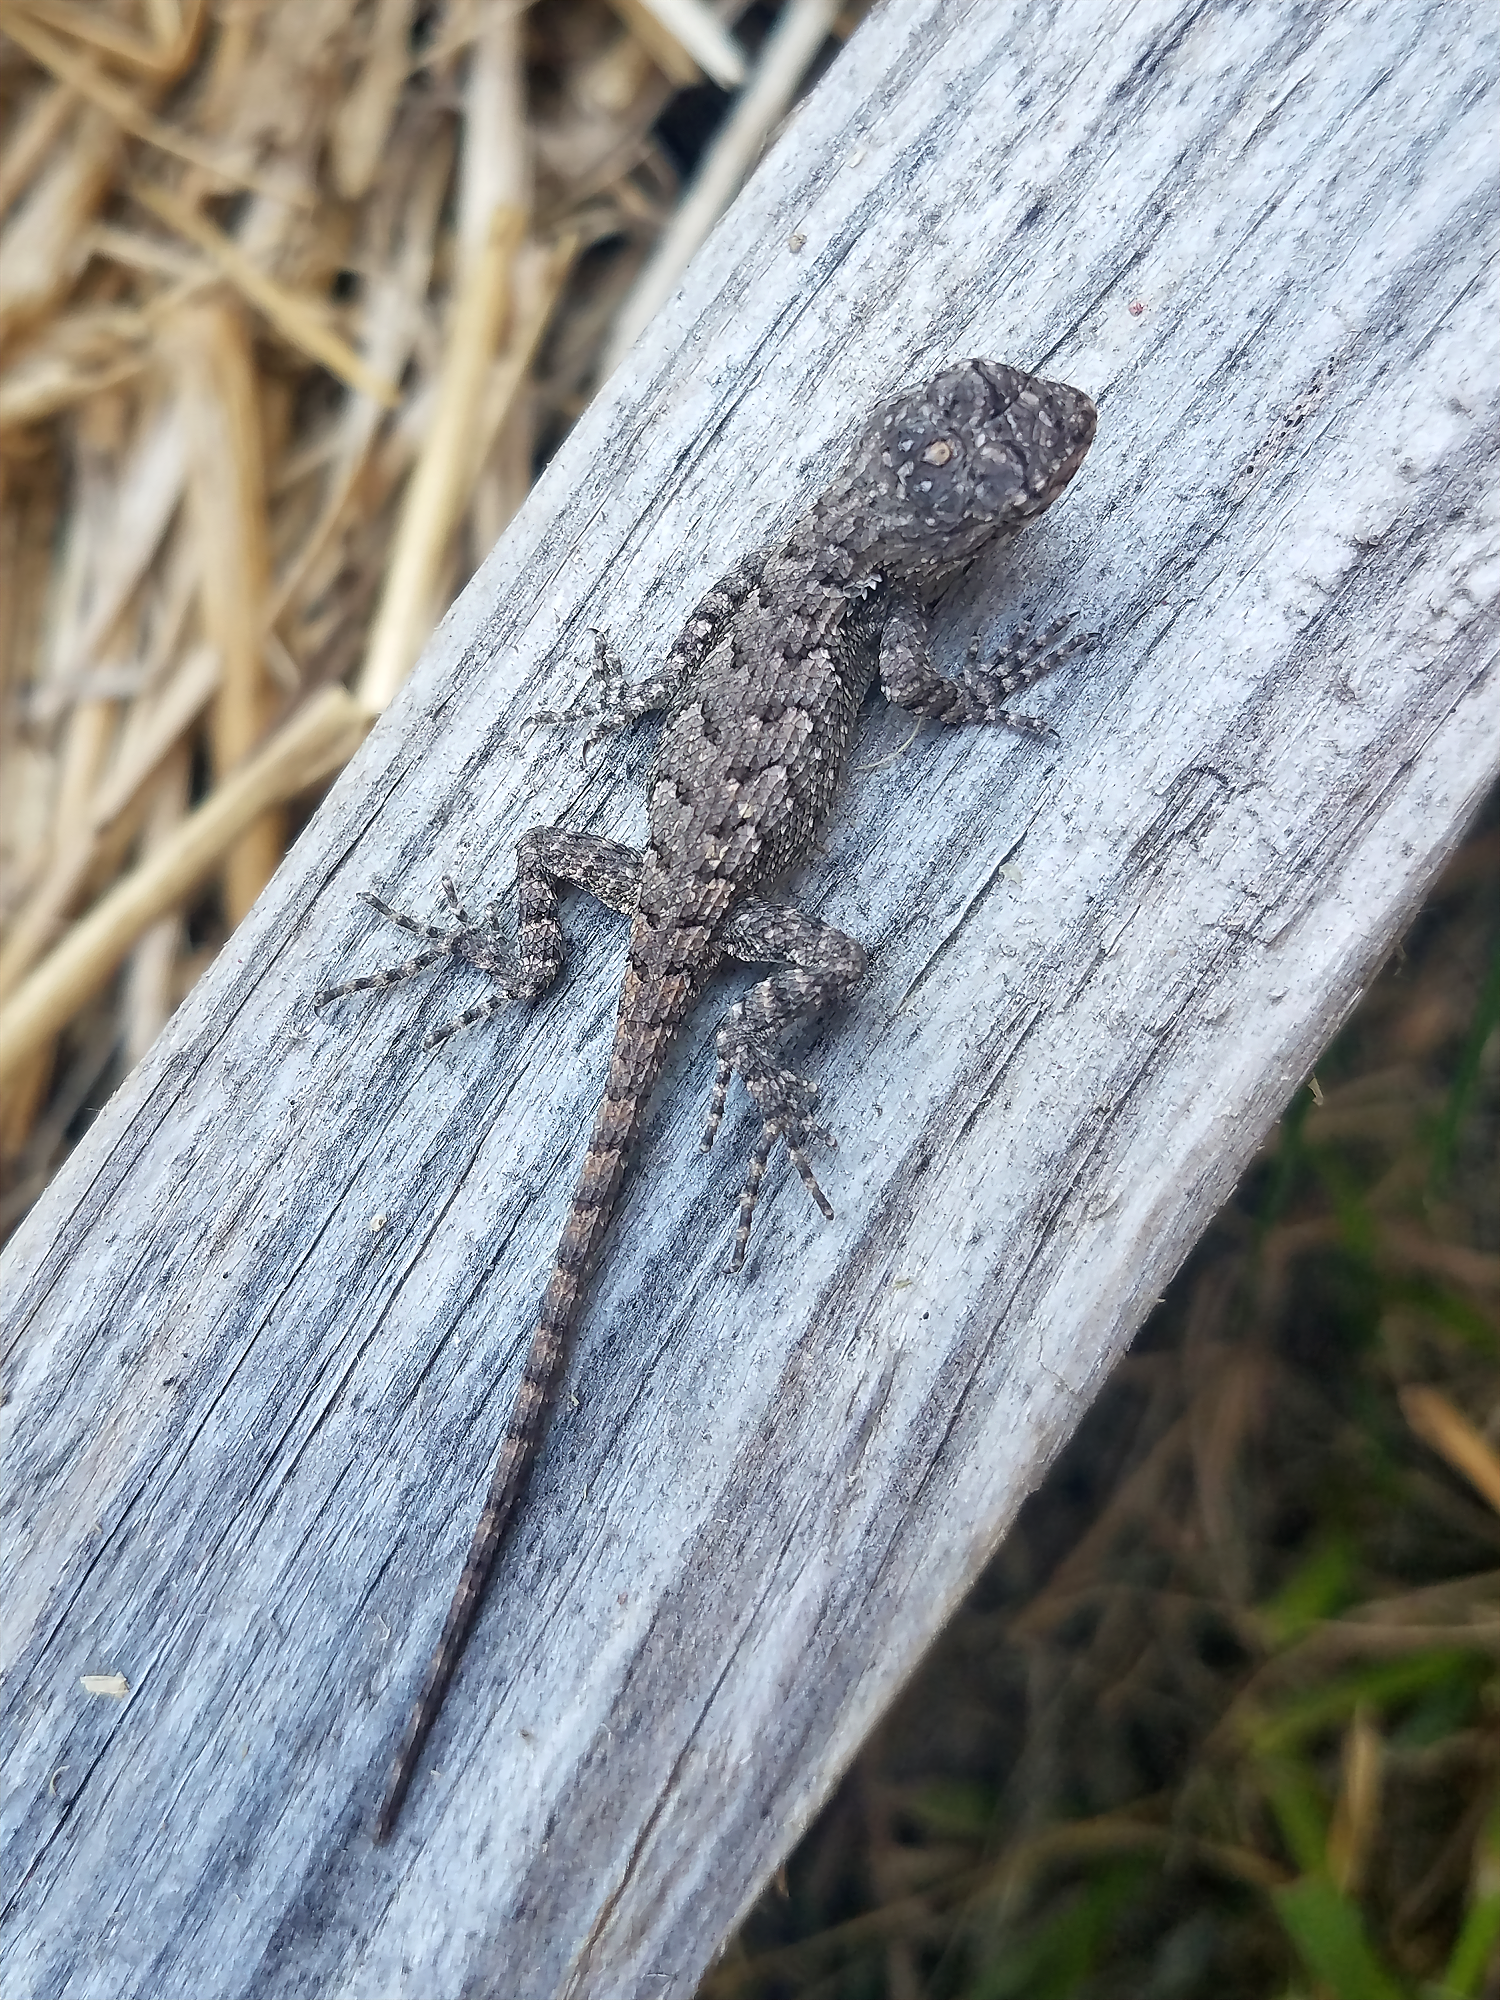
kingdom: Animalia
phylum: Chordata
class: Squamata
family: Phrynosomatidae
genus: Sceloporus
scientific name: Sceloporus undulatus
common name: Eastern fence lizard
